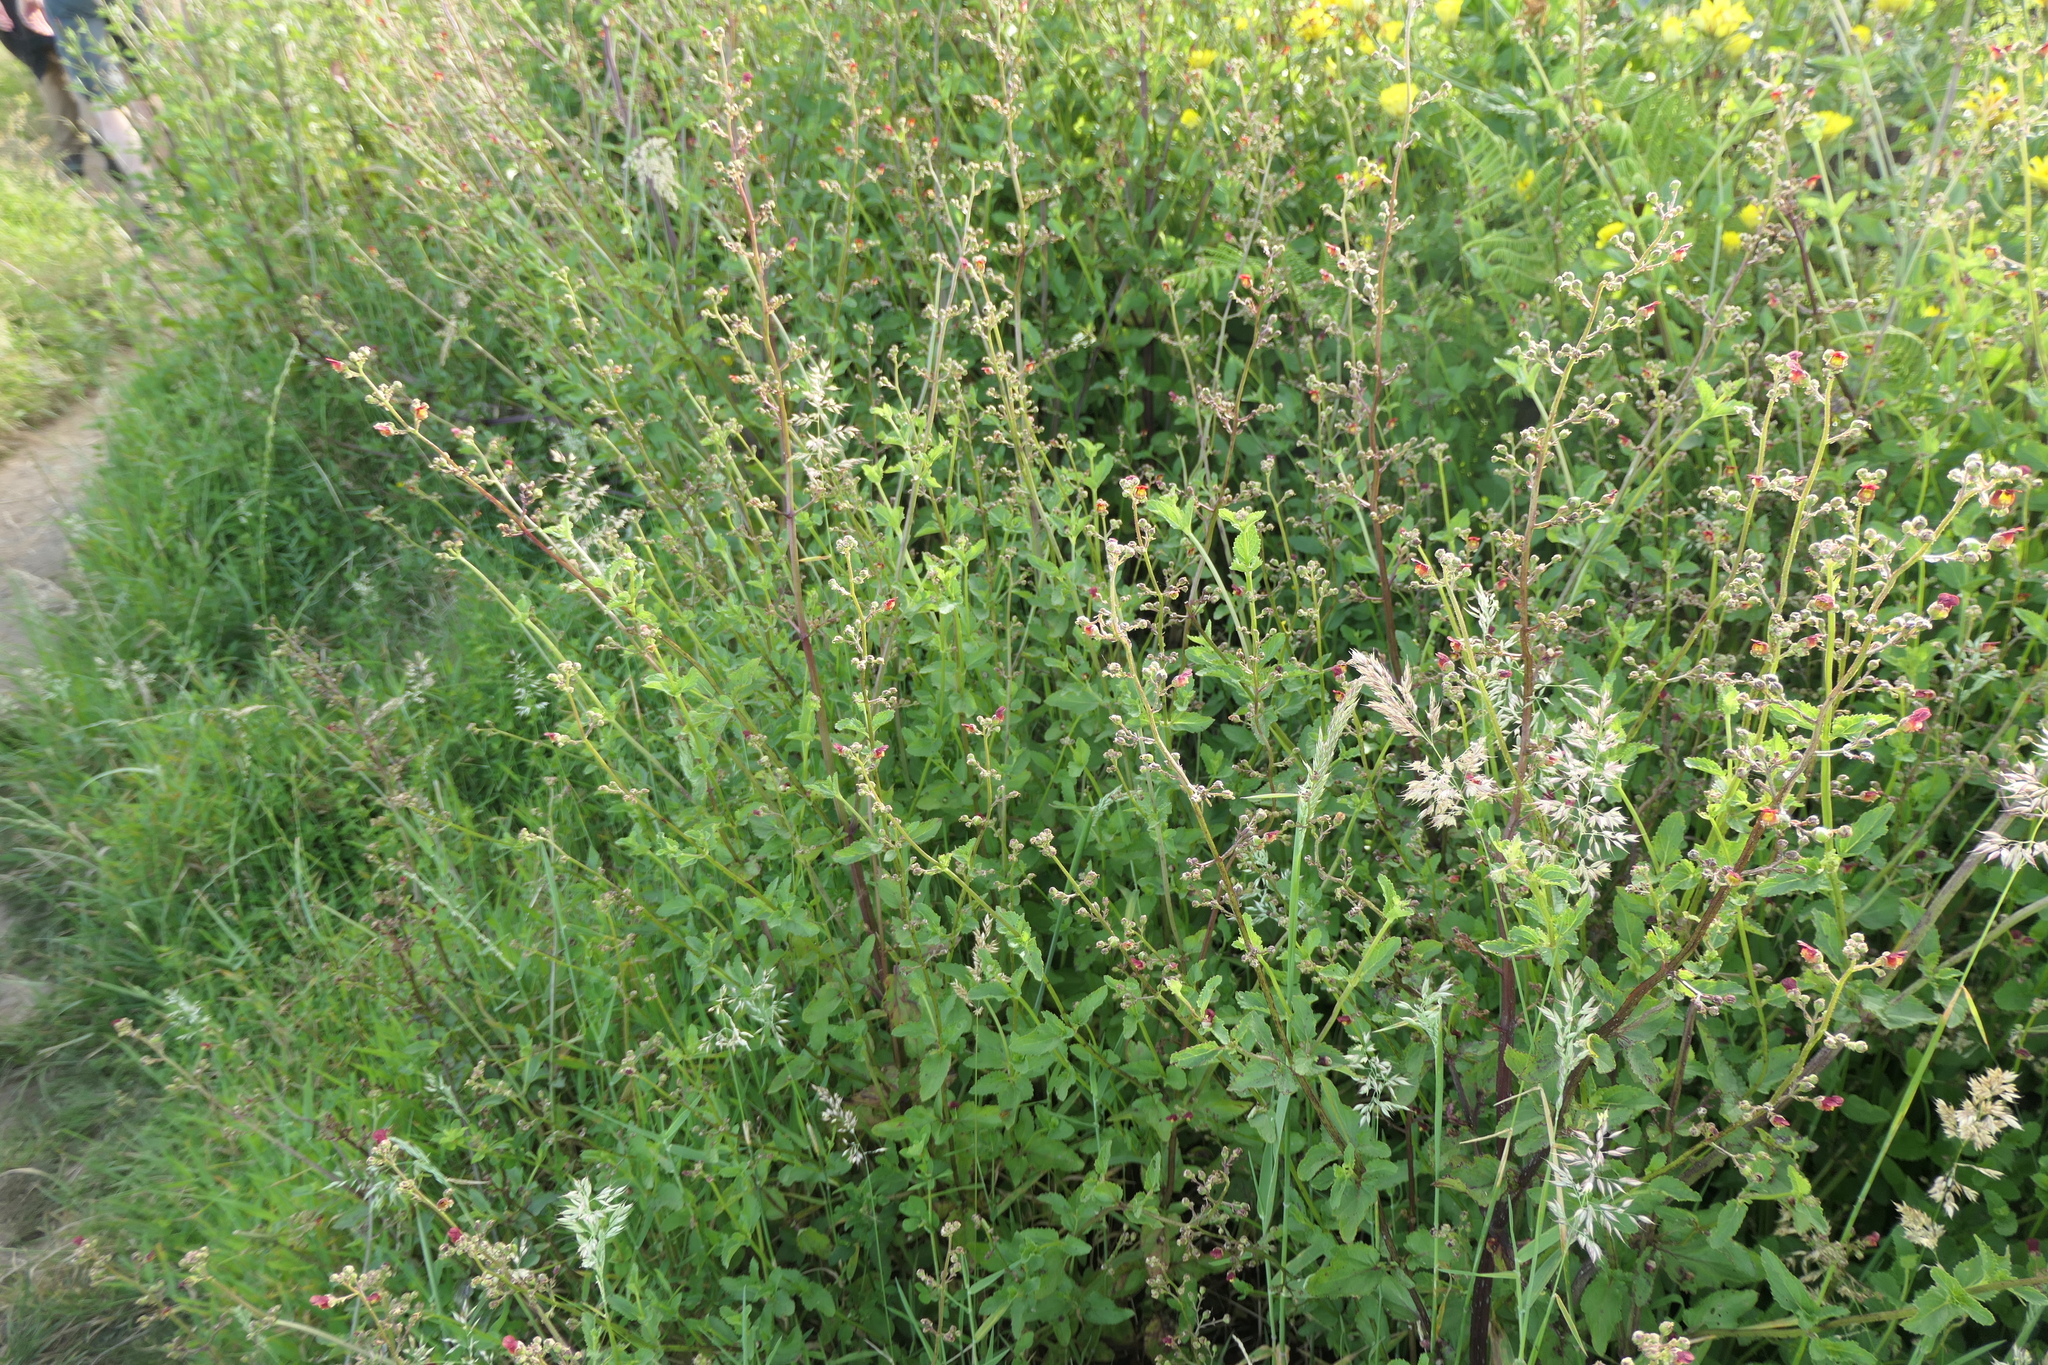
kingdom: Plantae
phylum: Tracheophyta
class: Magnoliopsida
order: Lamiales
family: Scrophulariaceae
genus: Scrophularia
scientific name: Scrophularia auriculata
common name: Water betony
